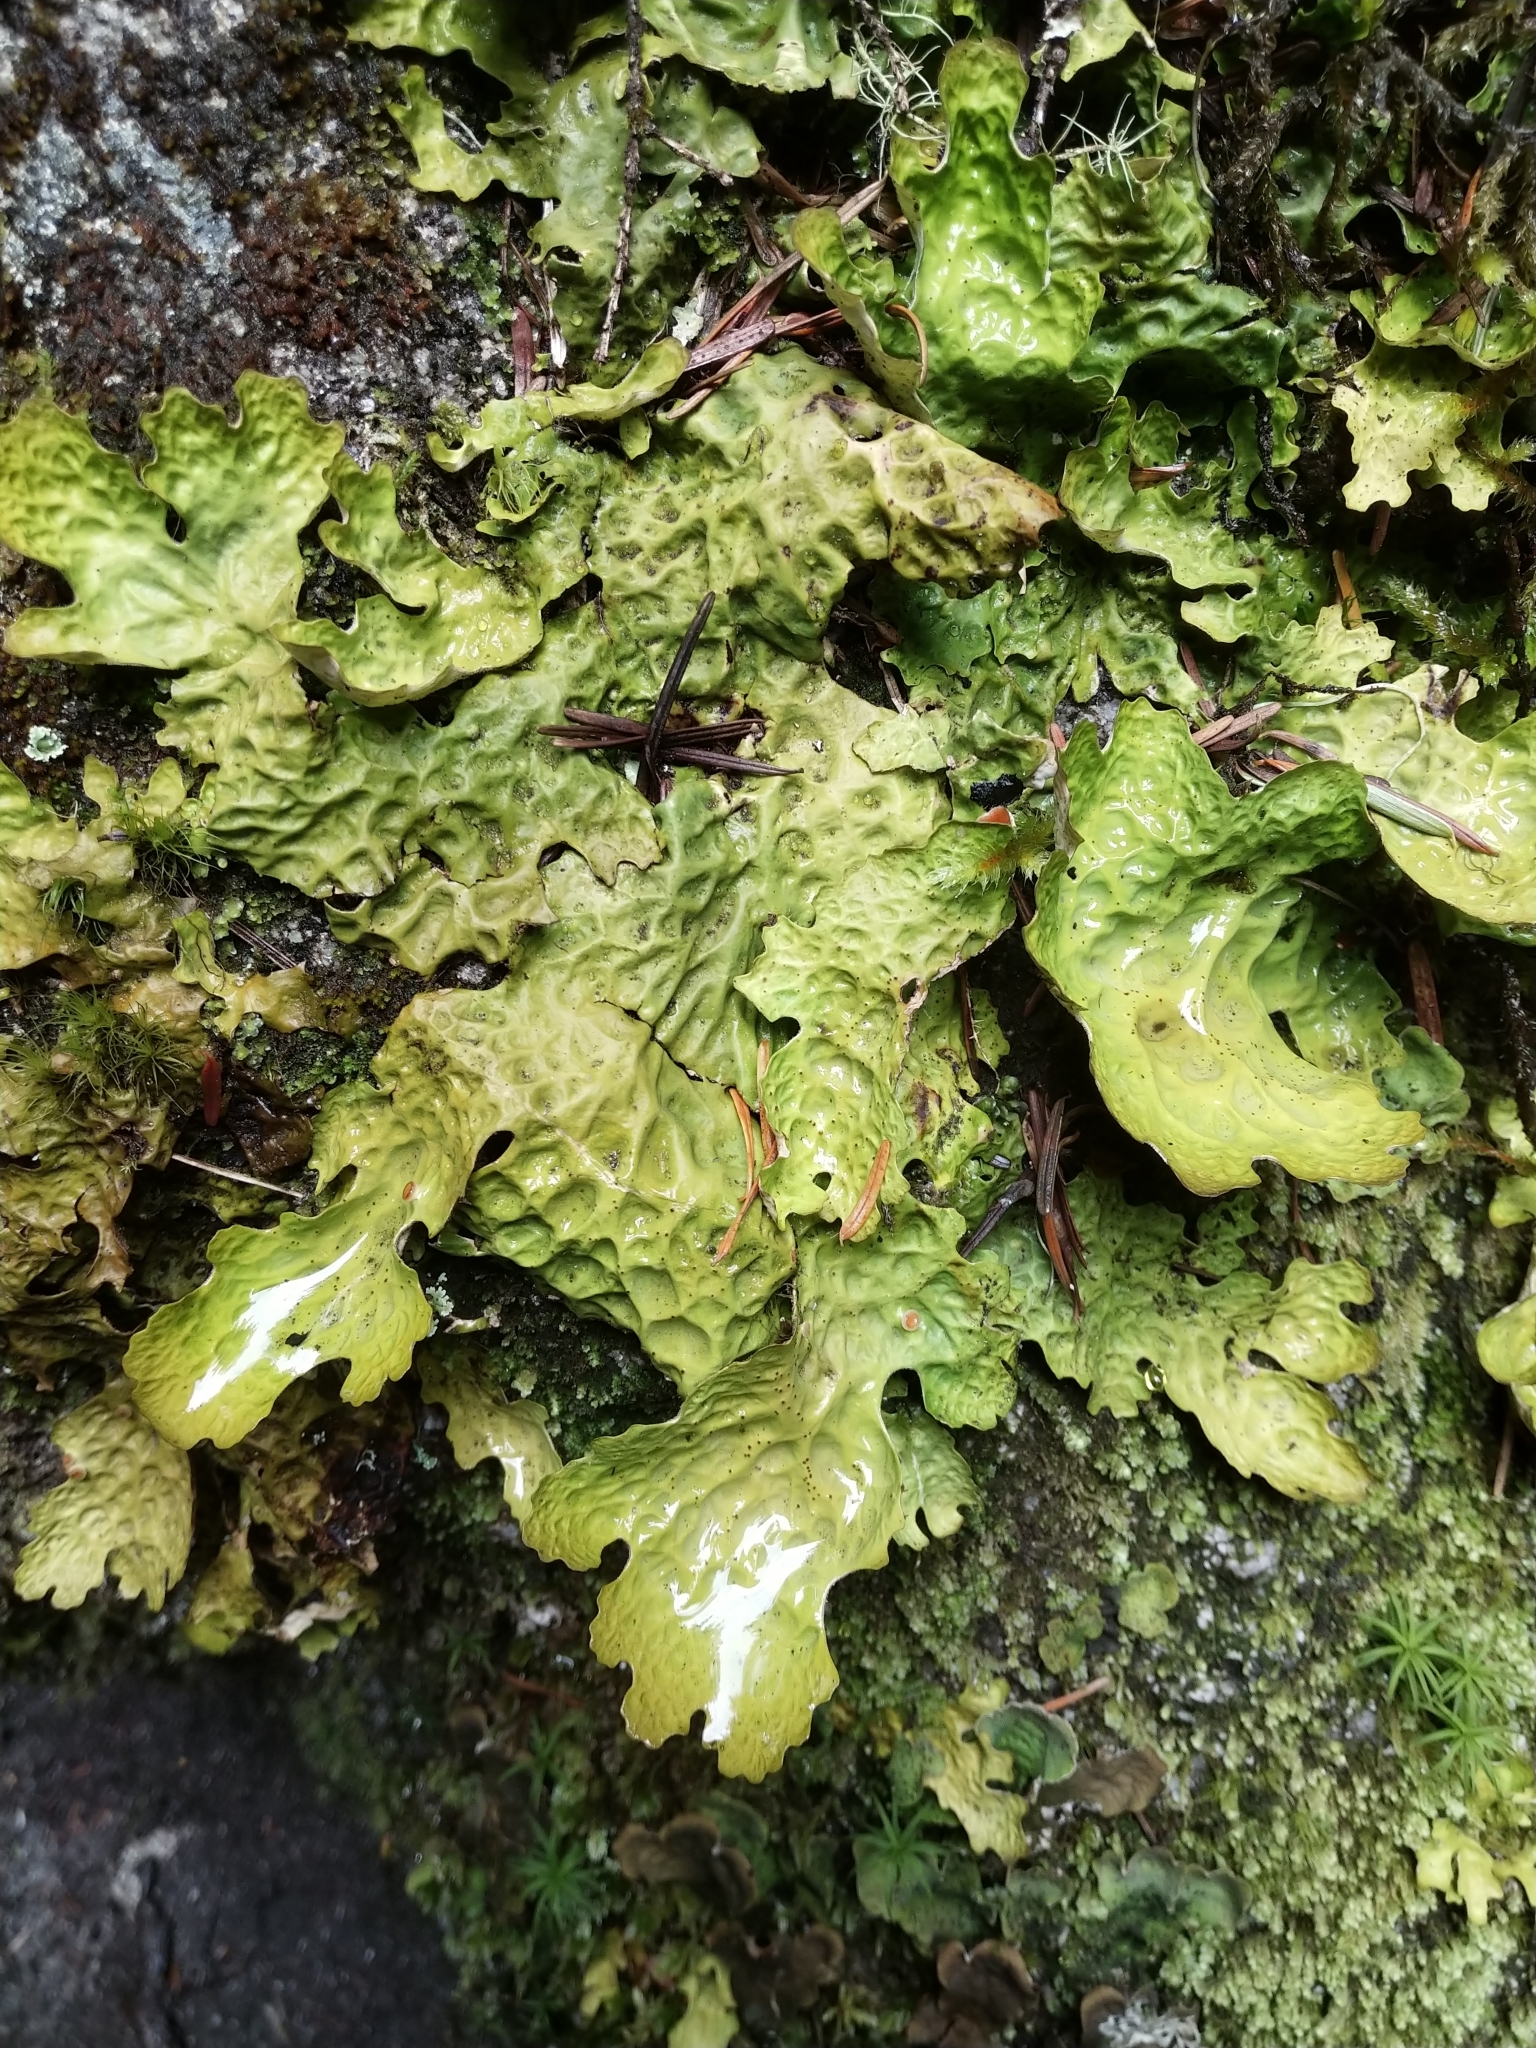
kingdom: Fungi
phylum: Ascomycota
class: Lecanoromycetes
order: Peltigerales
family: Lobariaceae
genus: Lobaria
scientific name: Lobaria linita
